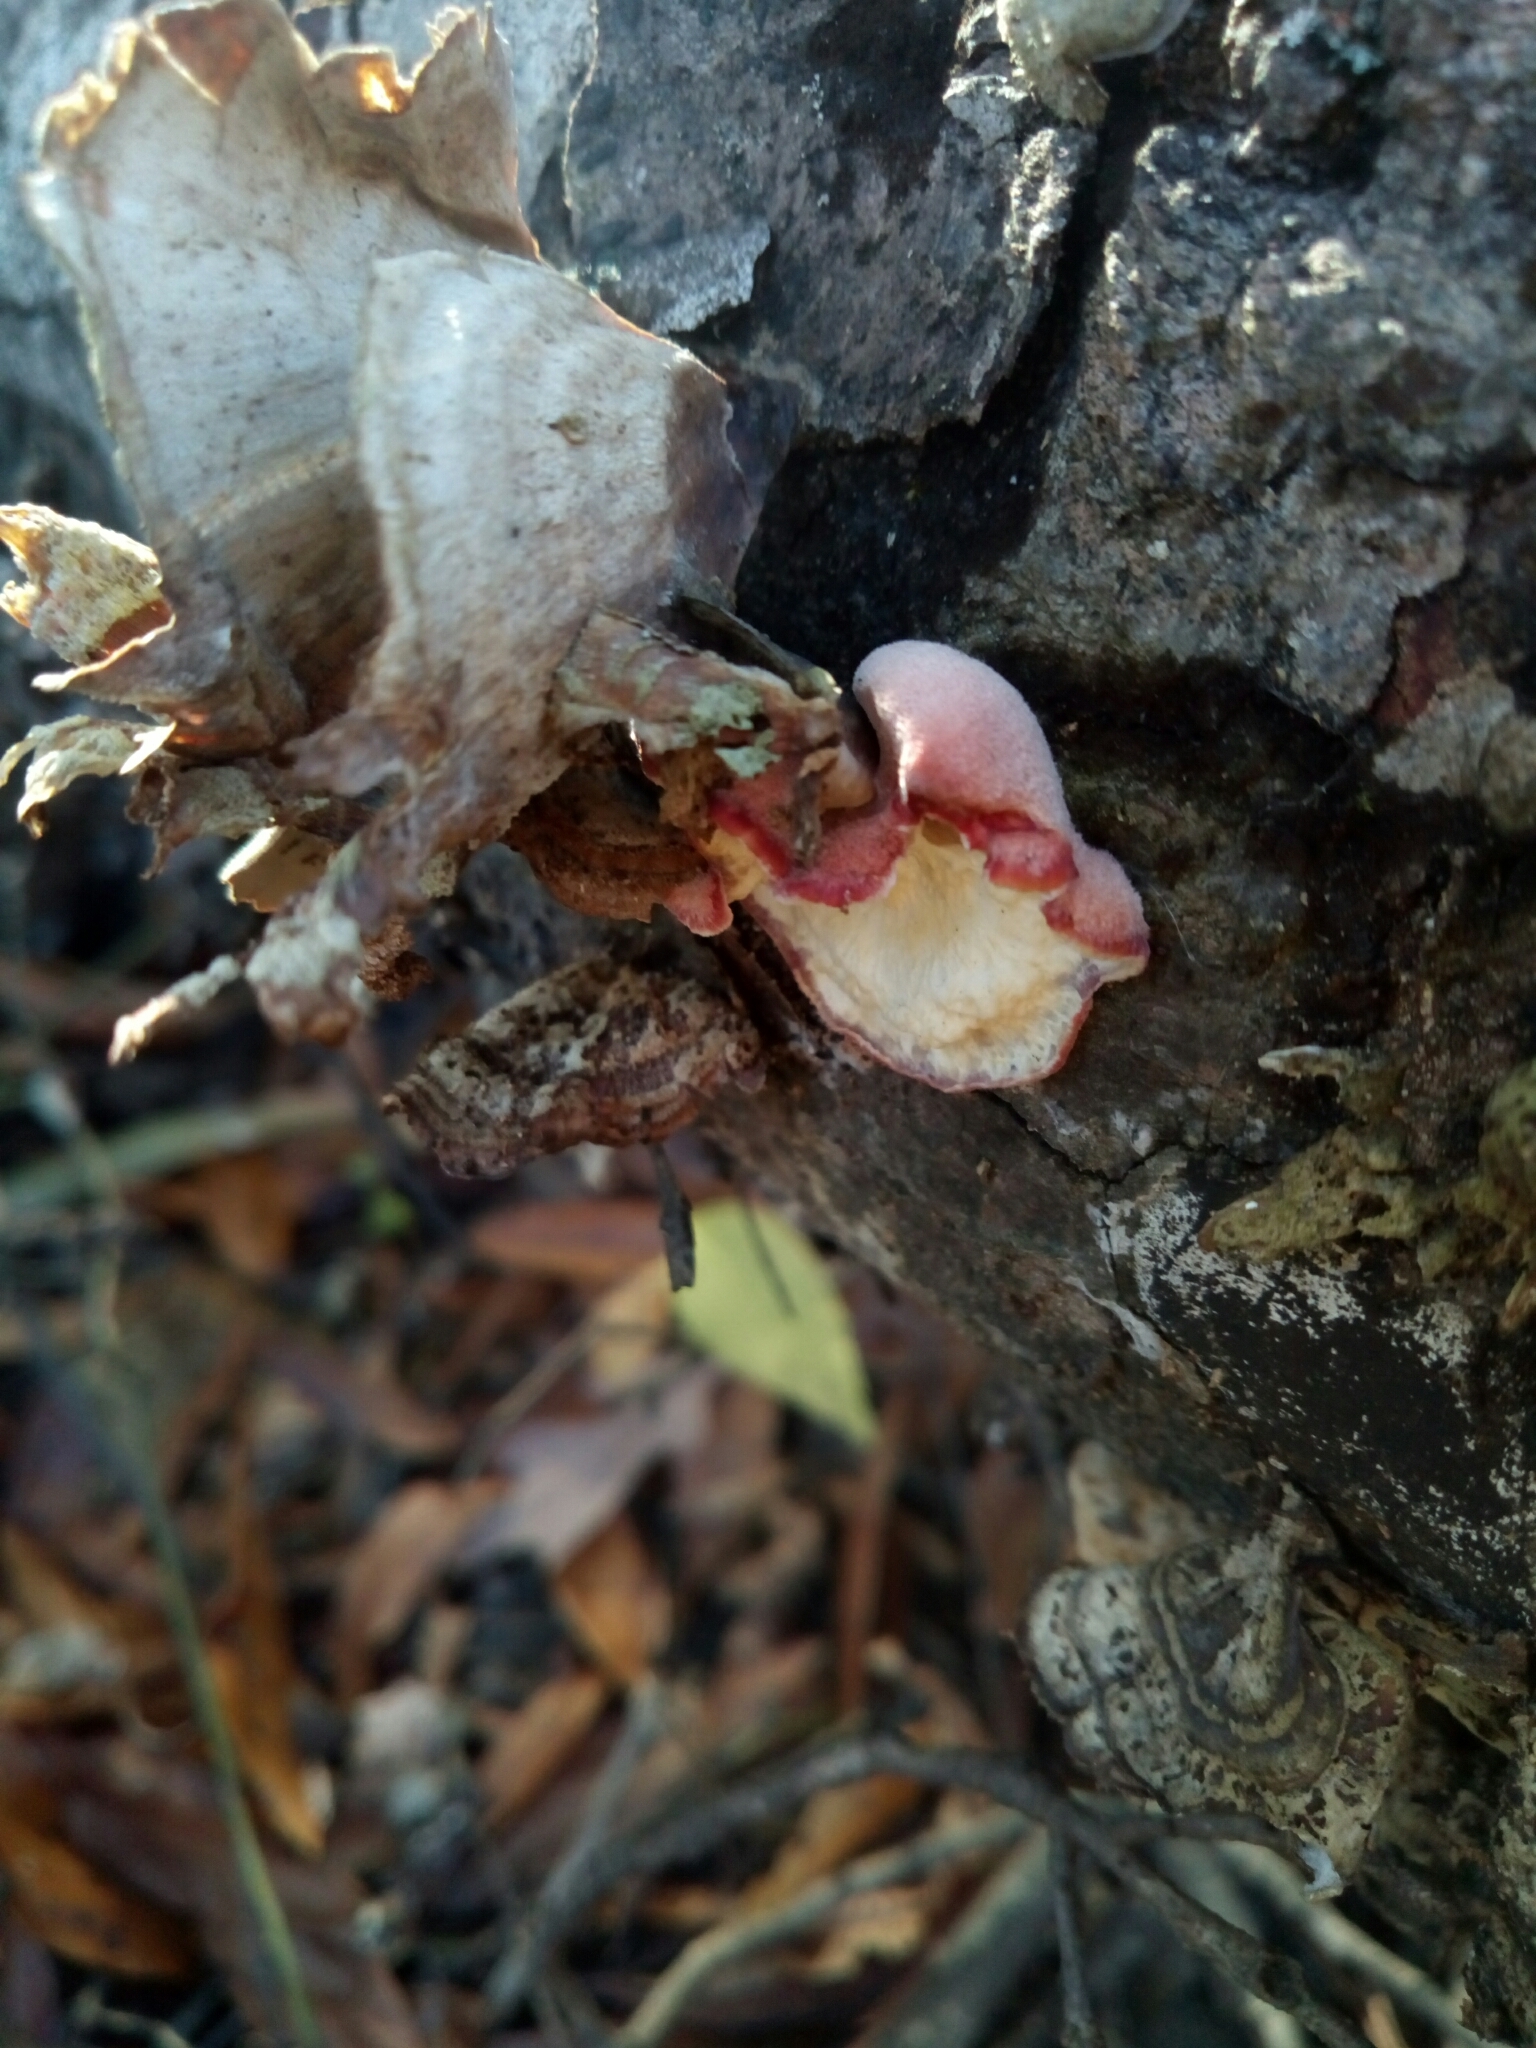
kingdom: Fungi
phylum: Basidiomycota
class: Agaricomycetes
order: Polyporales
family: Irpicaceae
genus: Byssomerulius
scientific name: Byssomerulius incarnatus
